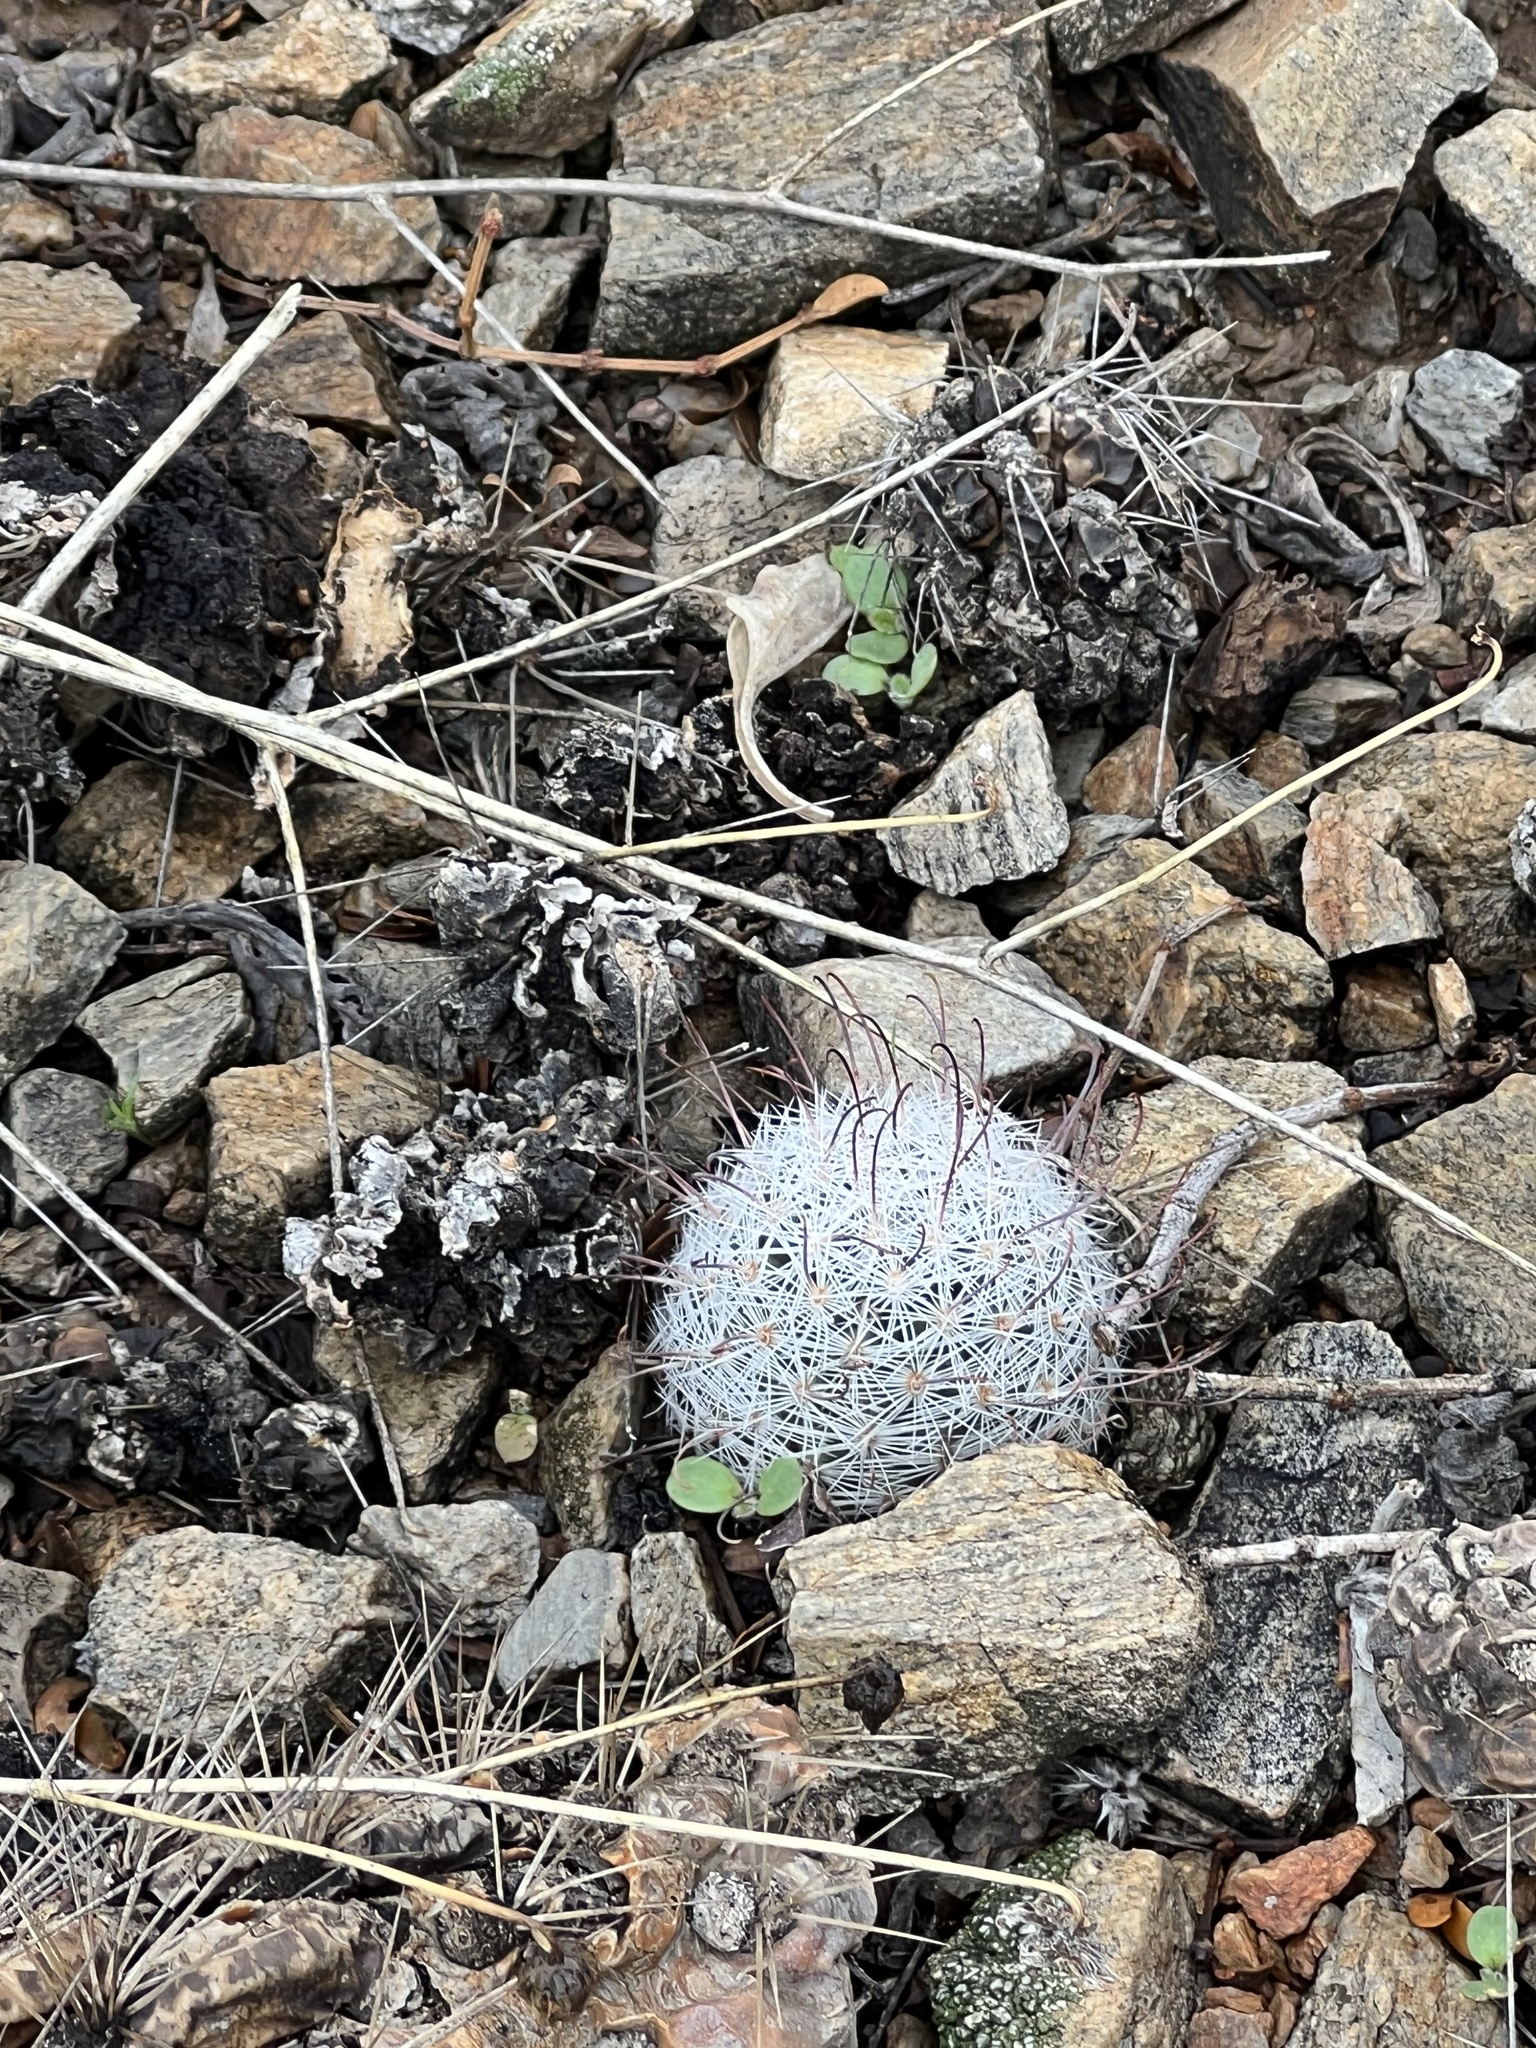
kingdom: Plantae
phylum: Tracheophyta
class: Magnoliopsida
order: Caryophyllales
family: Cactaceae
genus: Cochemiea
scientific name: Cochemiea grahamii
